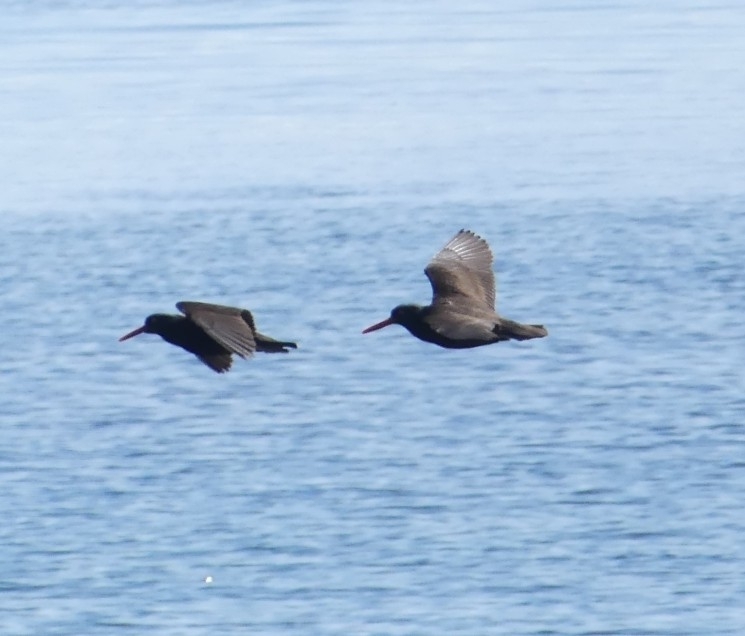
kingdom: Animalia
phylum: Chordata
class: Aves
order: Charadriiformes
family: Haematopodidae
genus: Haematopus
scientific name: Haematopus bachmani
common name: Black oystercatcher
